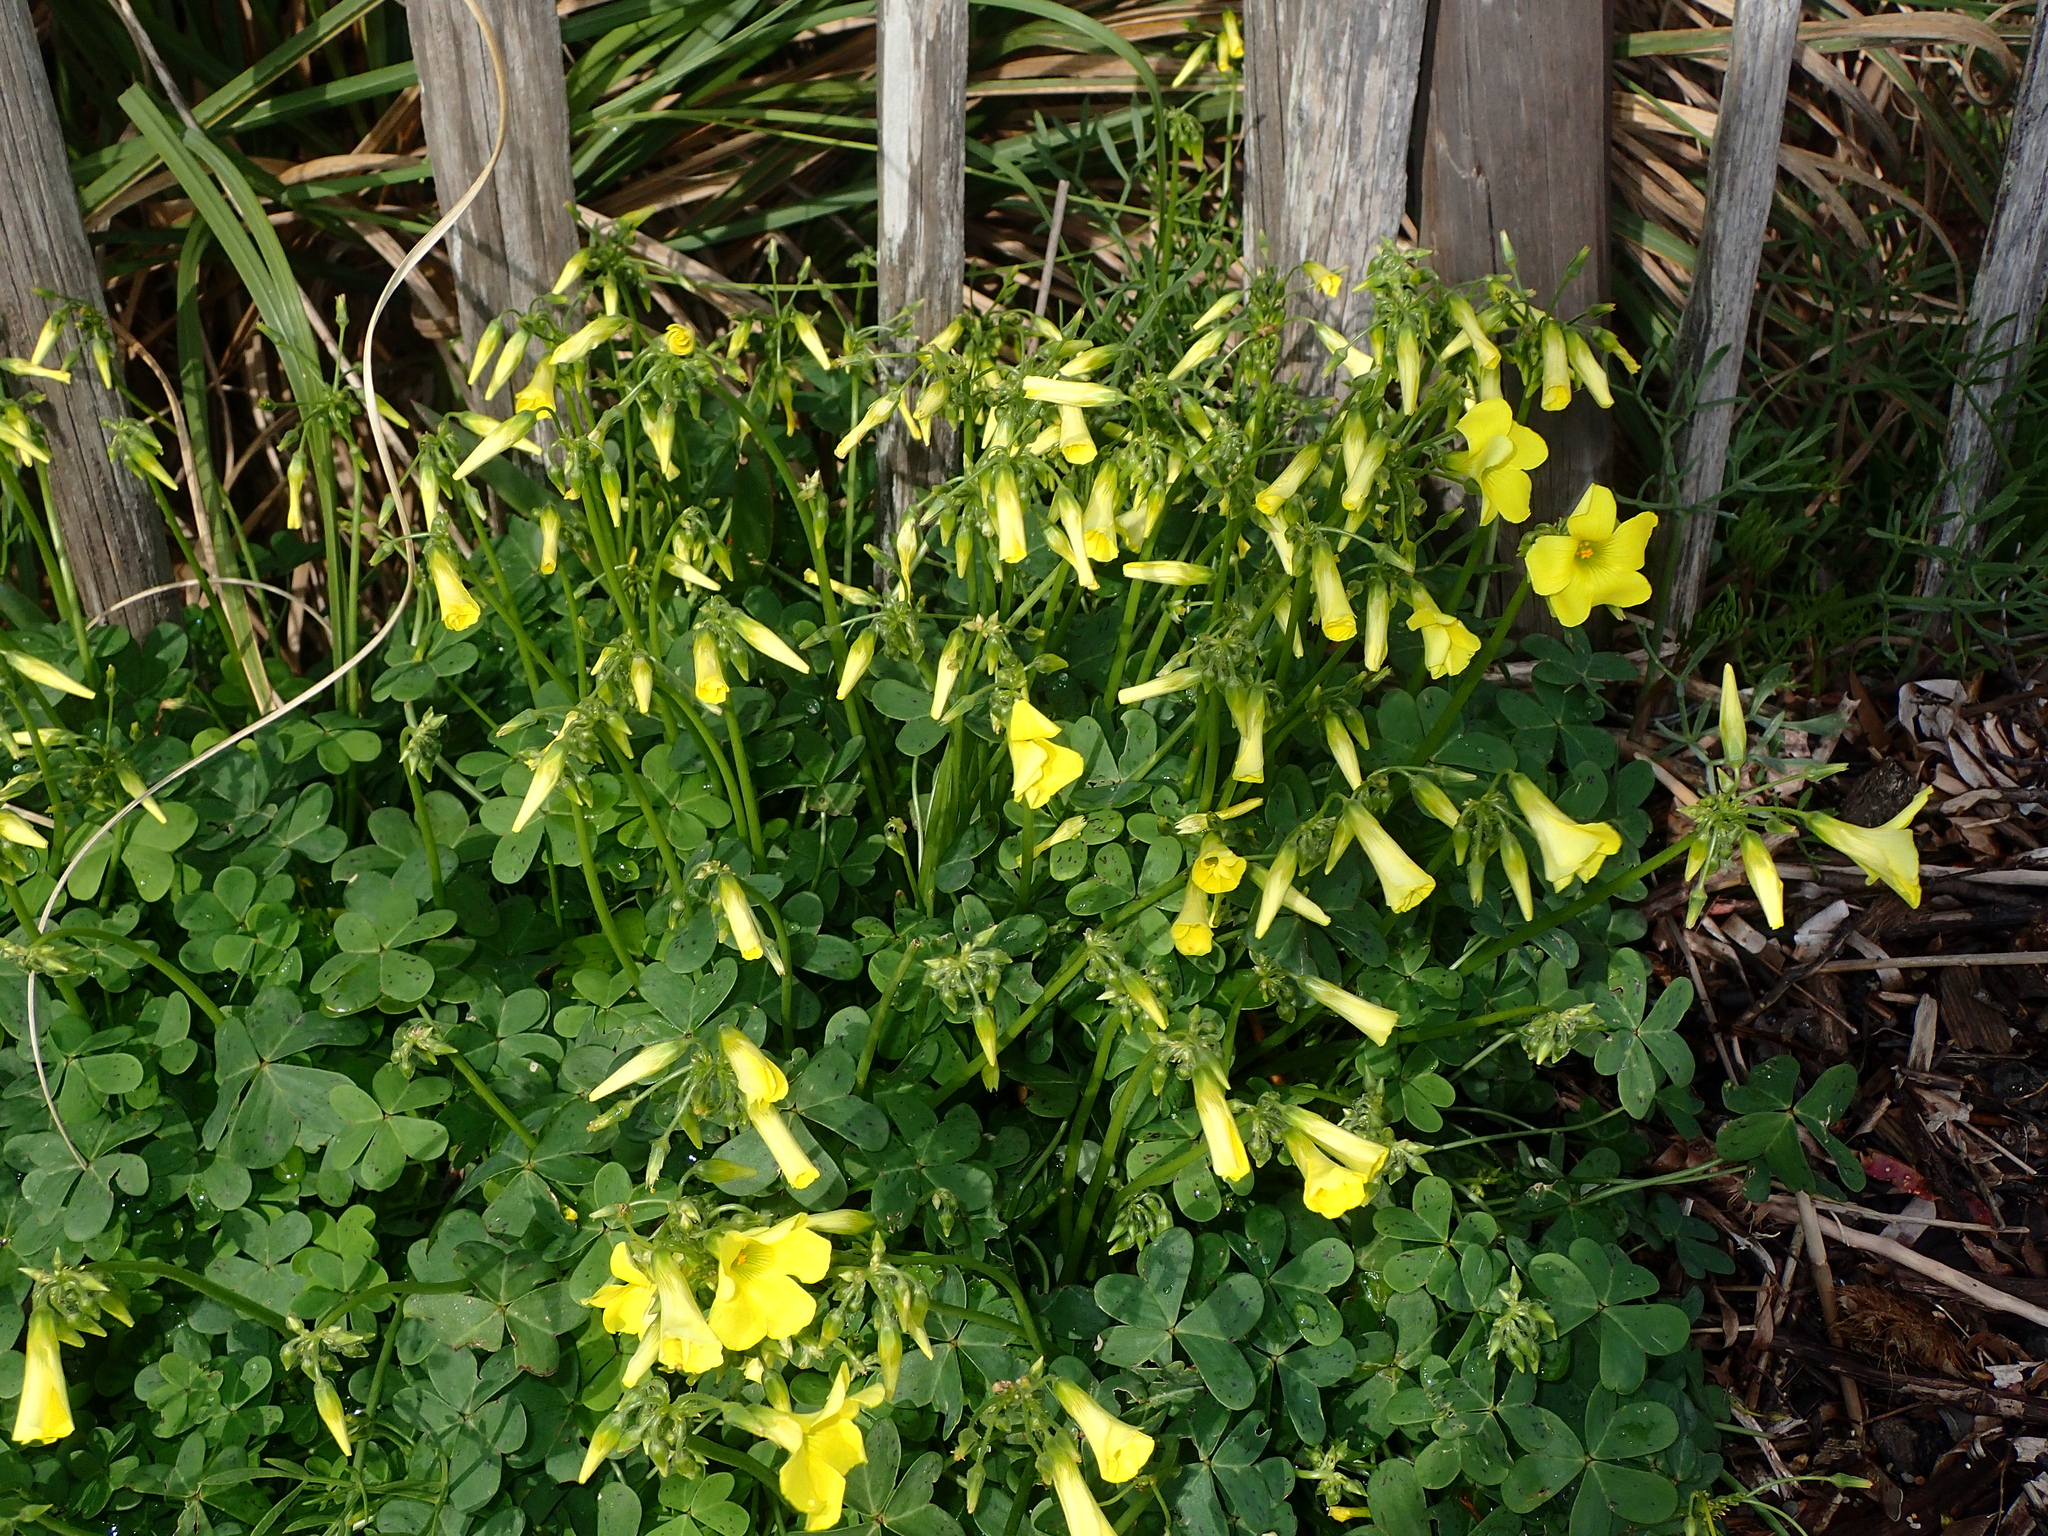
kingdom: Plantae
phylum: Tracheophyta
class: Magnoliopsida
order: Oxalidales
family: Oxalidaceae
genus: Oxalis
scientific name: Oxalis pes-caprae
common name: Bermuda-buttercup
